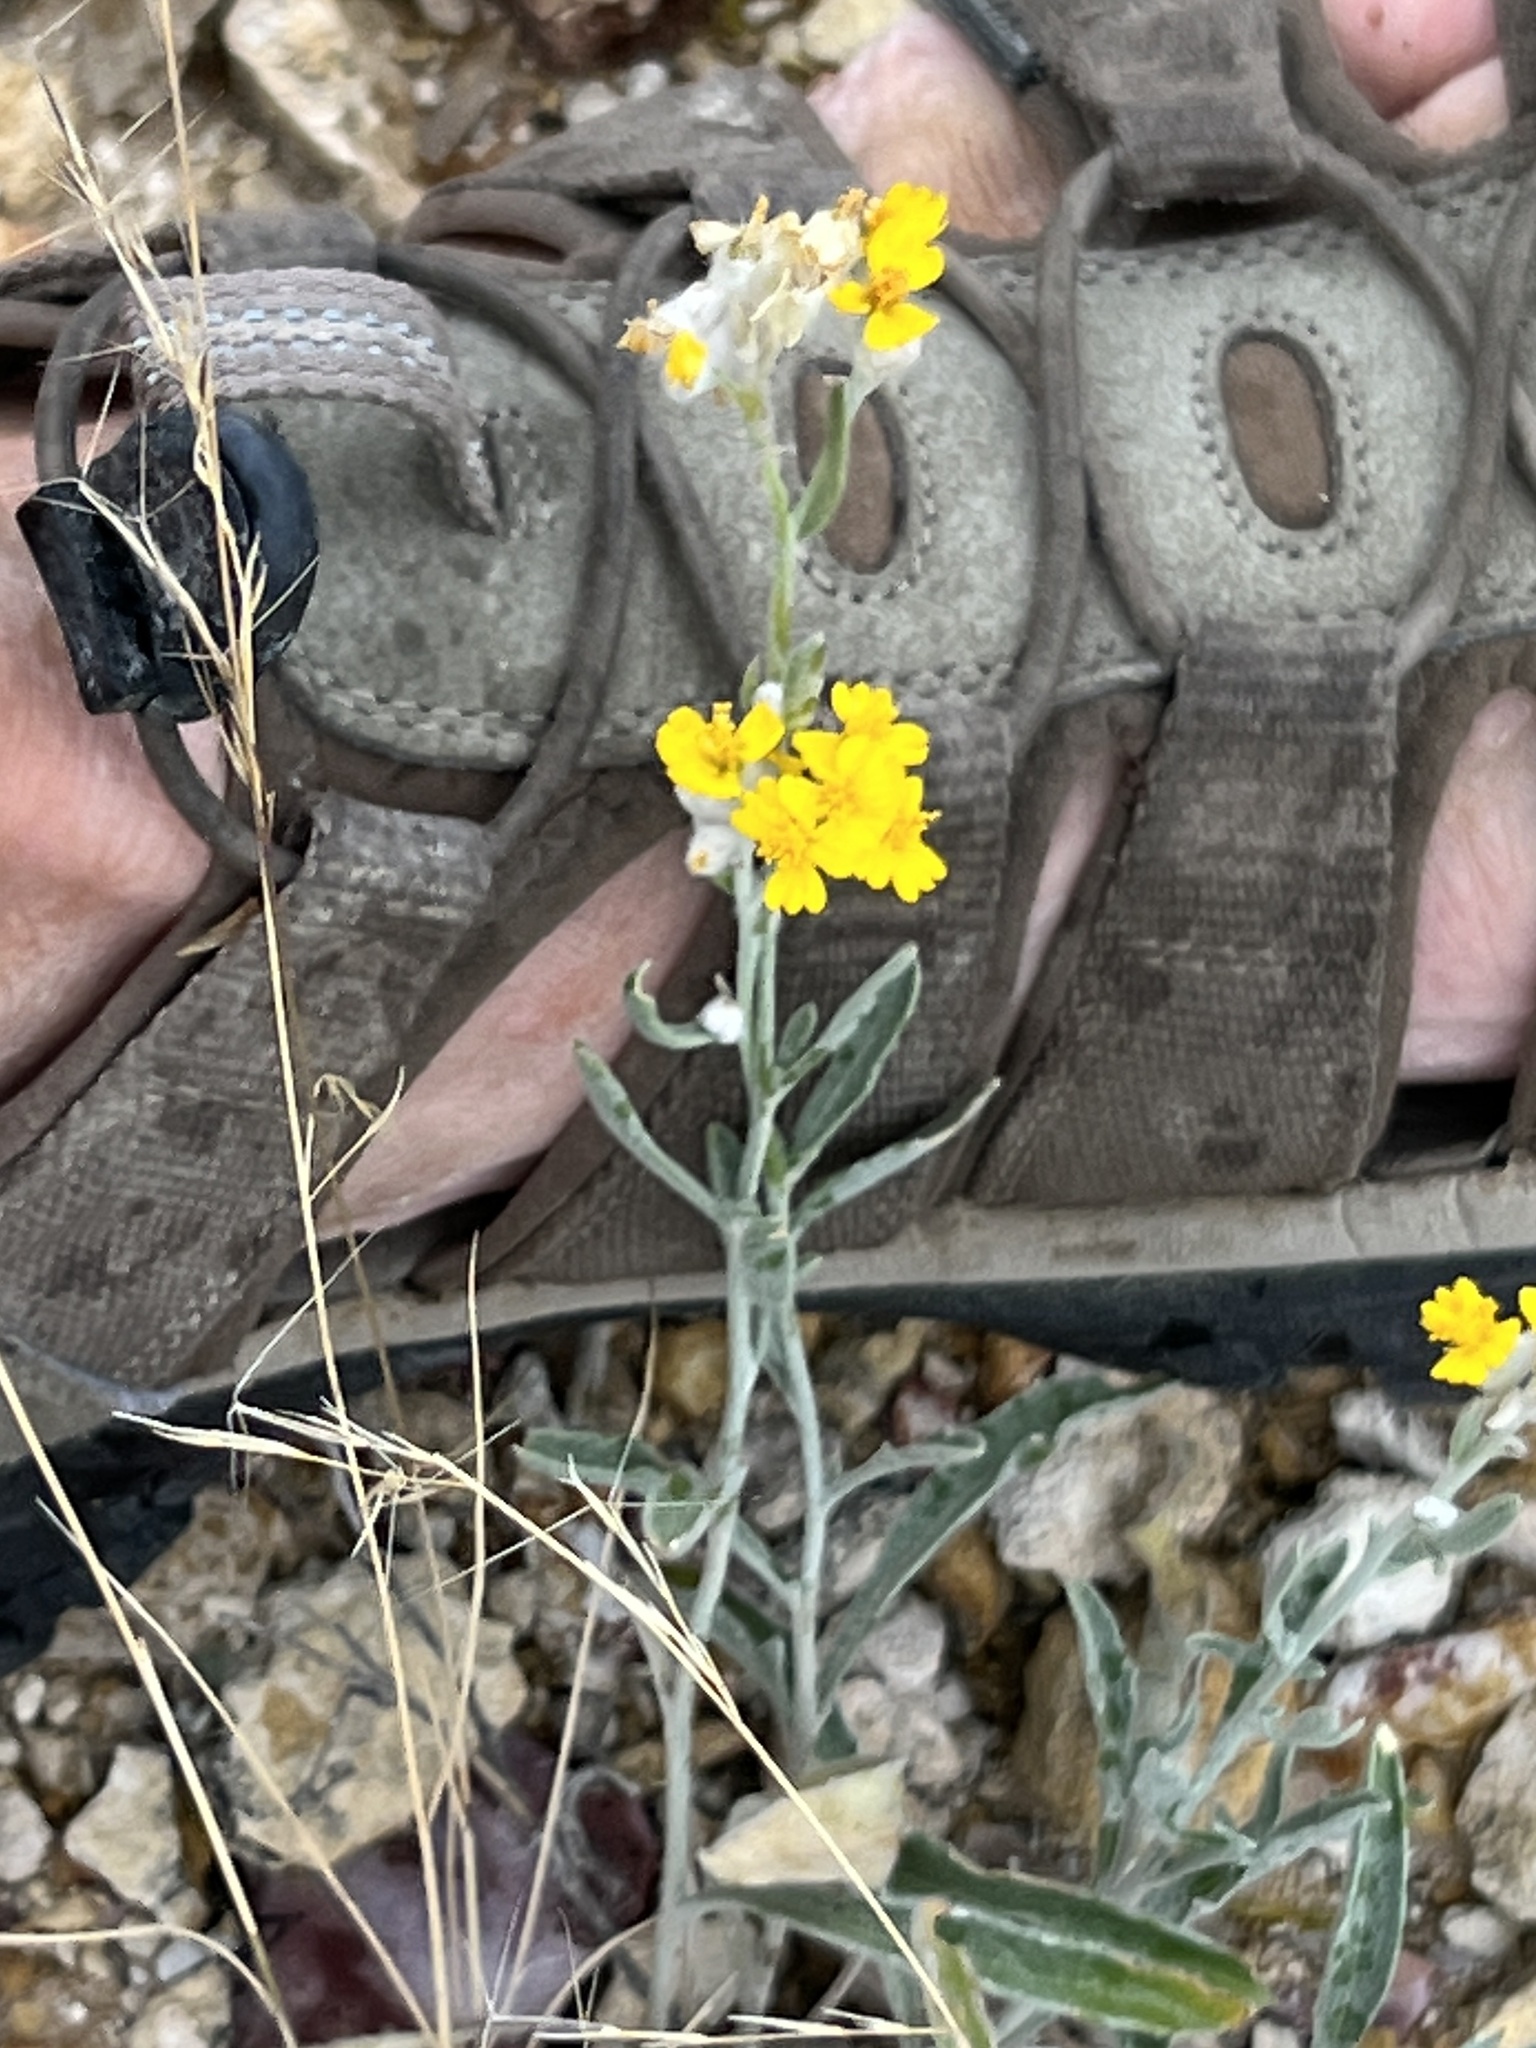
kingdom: Plantae
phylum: Tracheophyta
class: Magnoliopsida
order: Asterales
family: Asteraceae
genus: Psilostrophe
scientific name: Psilostrophe tagetina
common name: Marigold paper-flower
